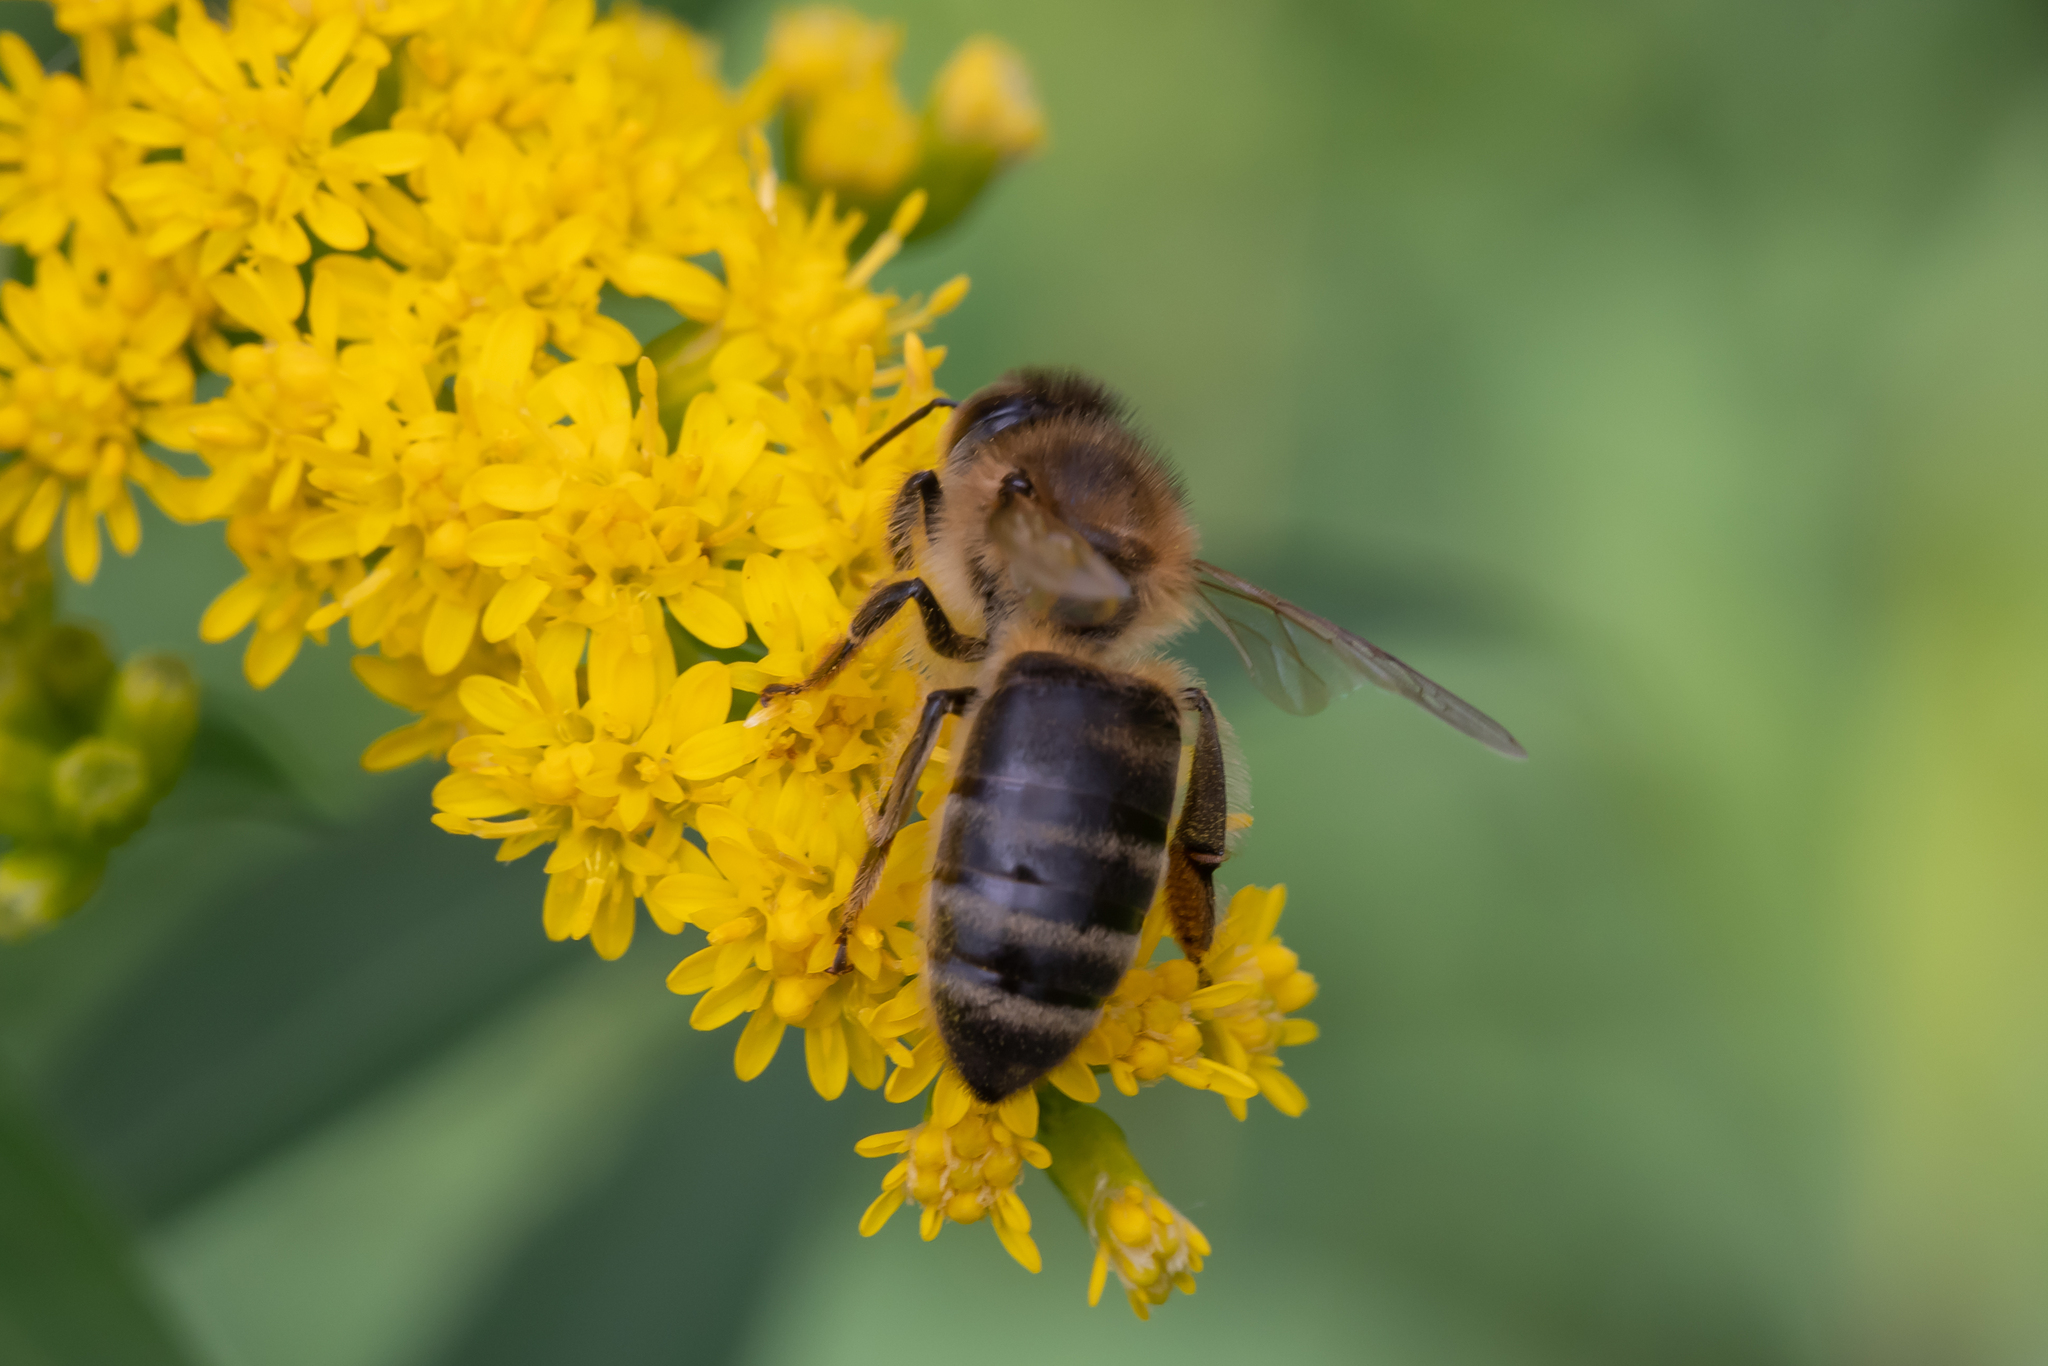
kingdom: Animalia
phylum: Arthropoda
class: Insecta
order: Hymenoptera
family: Apidae
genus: Apis
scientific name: Apis mellifera
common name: Honey bee
